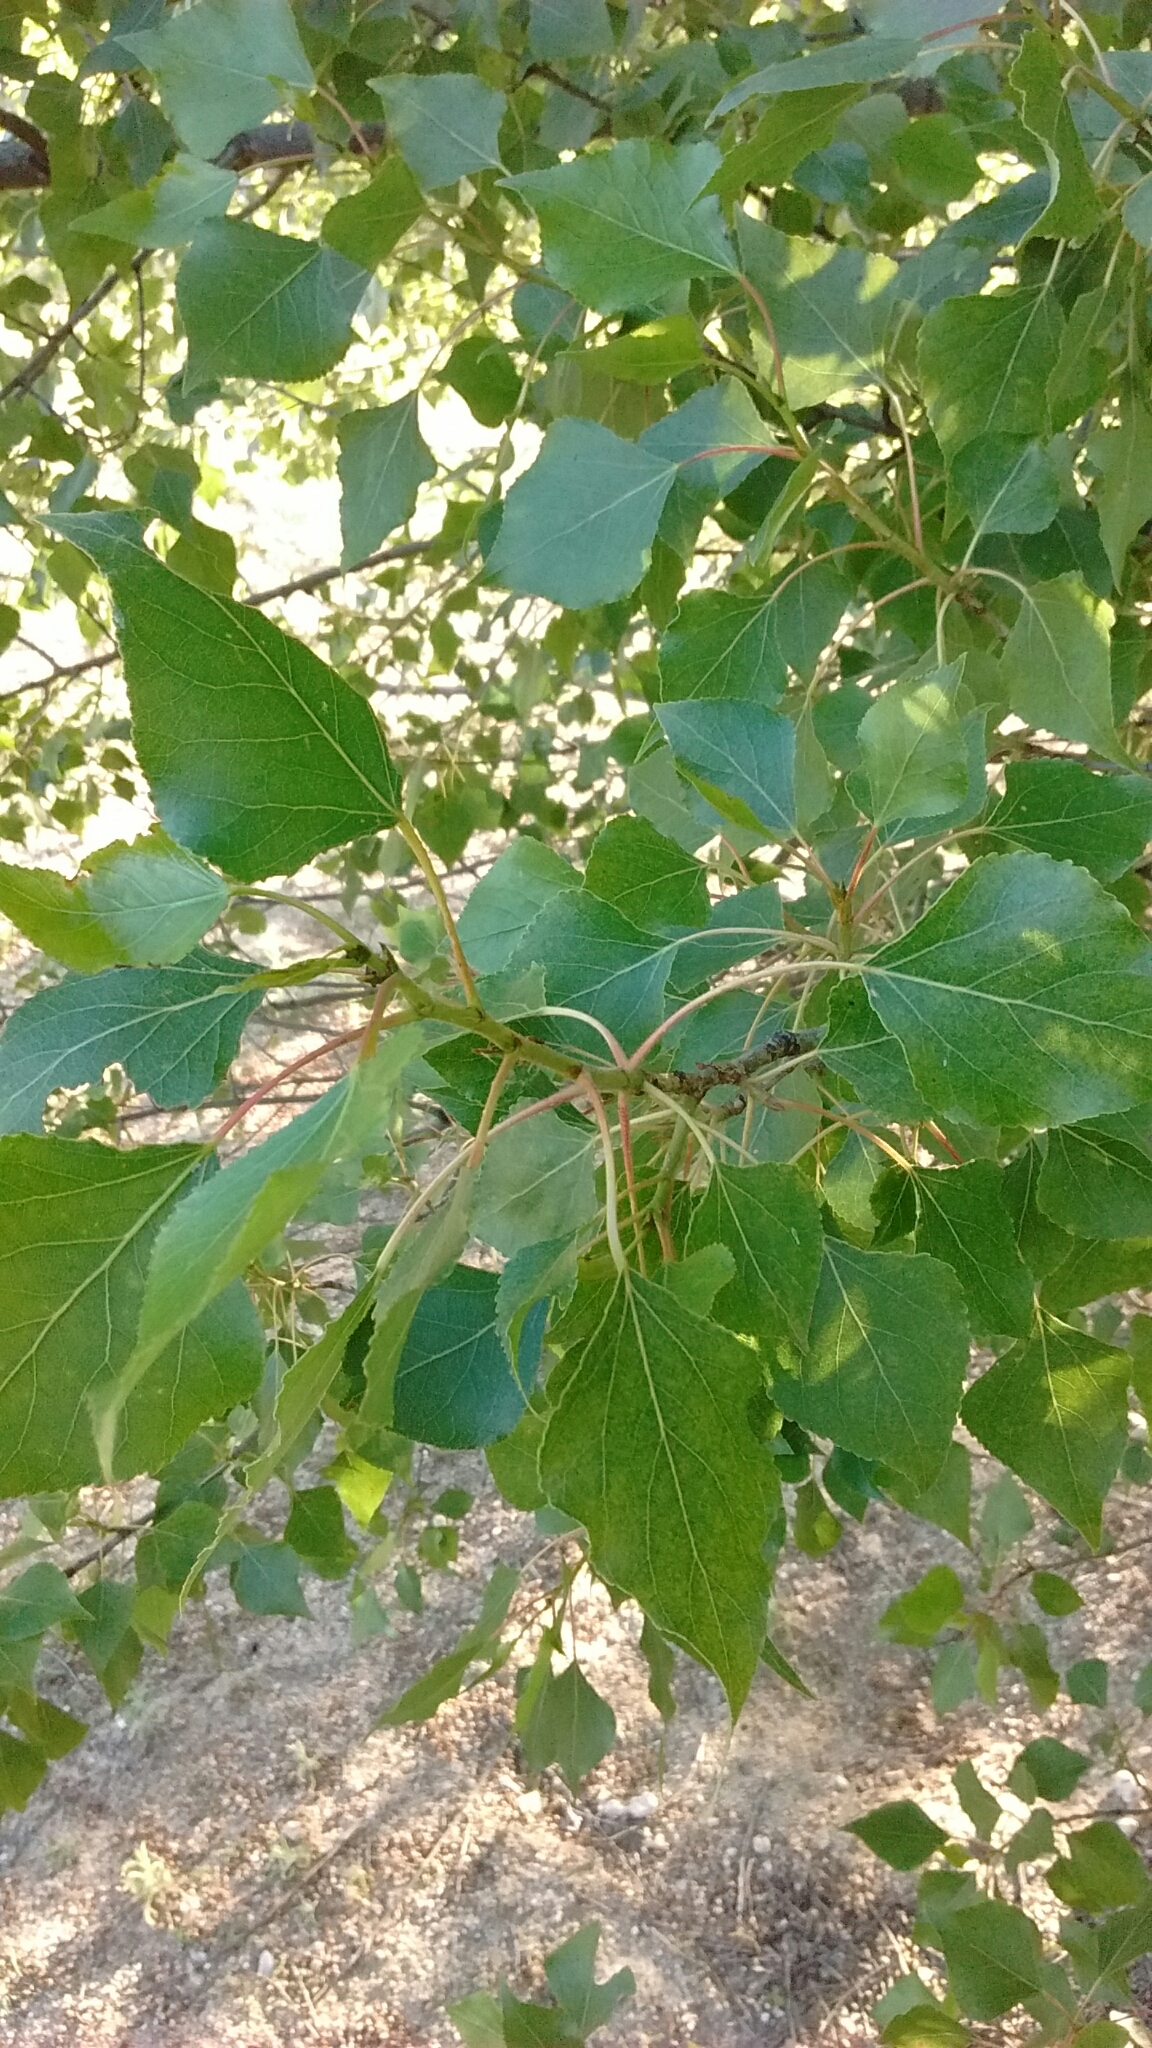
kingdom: Plantae
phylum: Tracheophyta
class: Magnoliopsida
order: Malpighiales
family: Salicaceae
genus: Populus
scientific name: Populus nigra
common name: Black poplar
